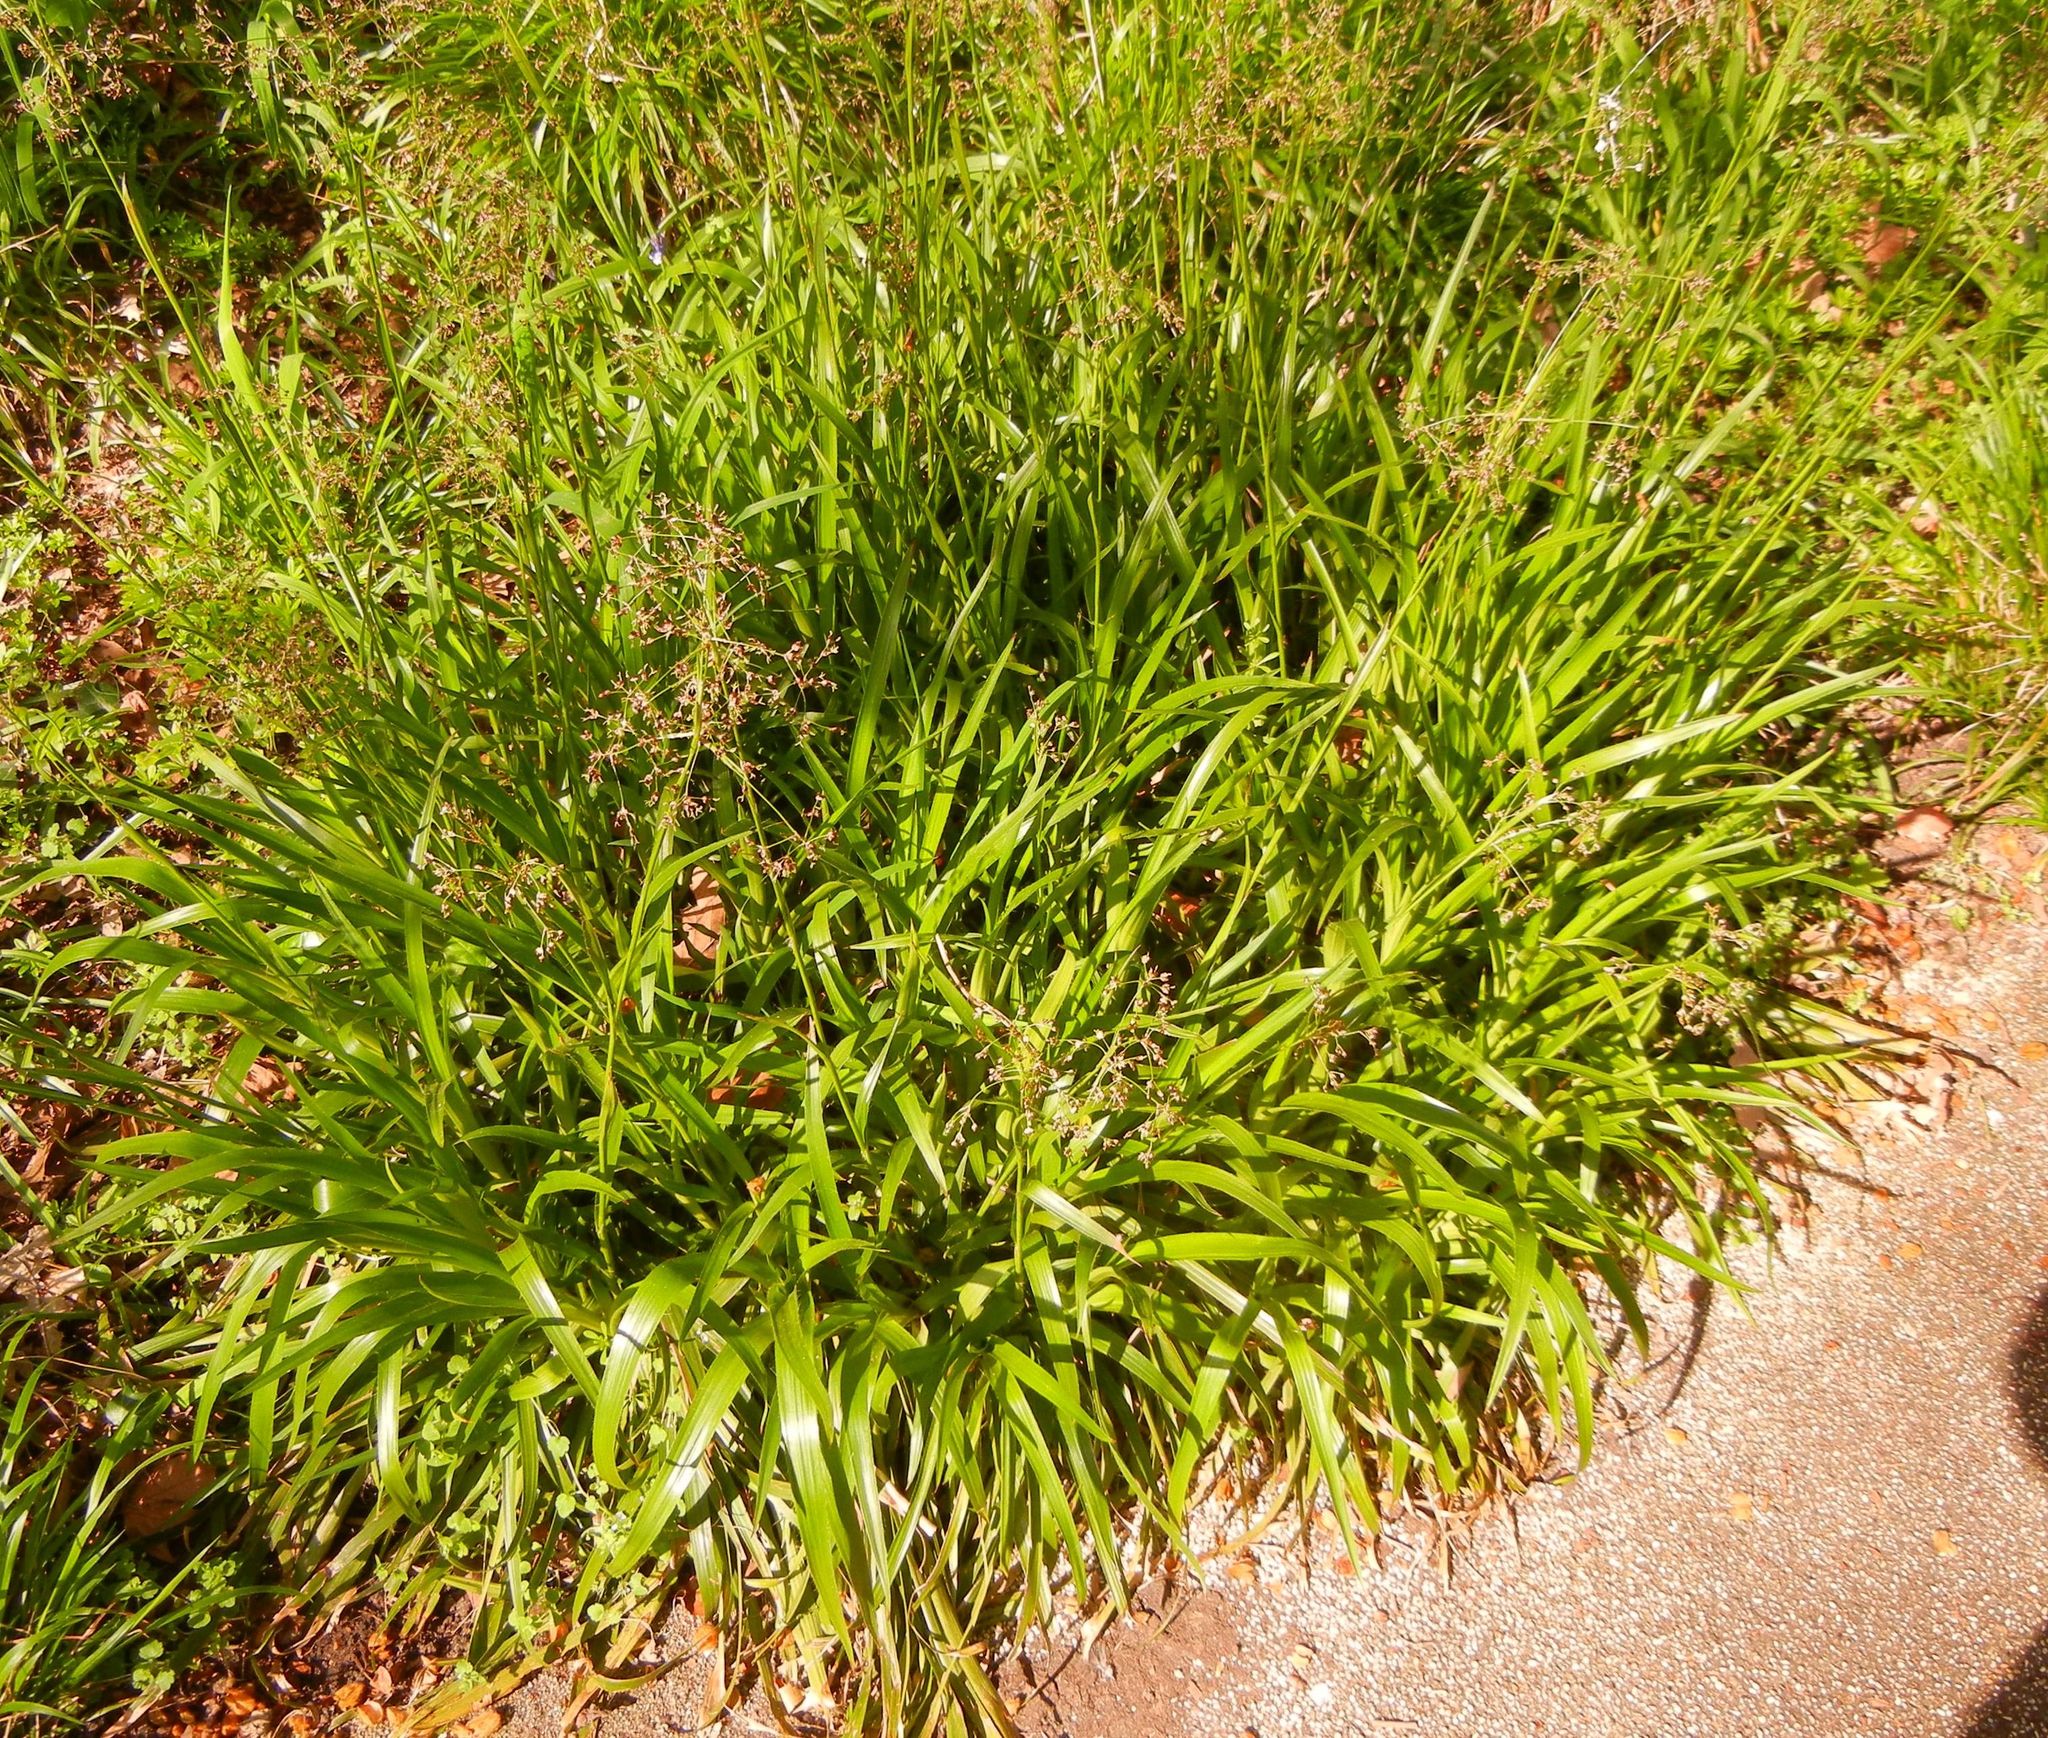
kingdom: Plantae
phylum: Tracheophyta
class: Liliopsida
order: Poales
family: Juncaceae
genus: Luzula
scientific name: Luzula sylvatica
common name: Great wood-rush
